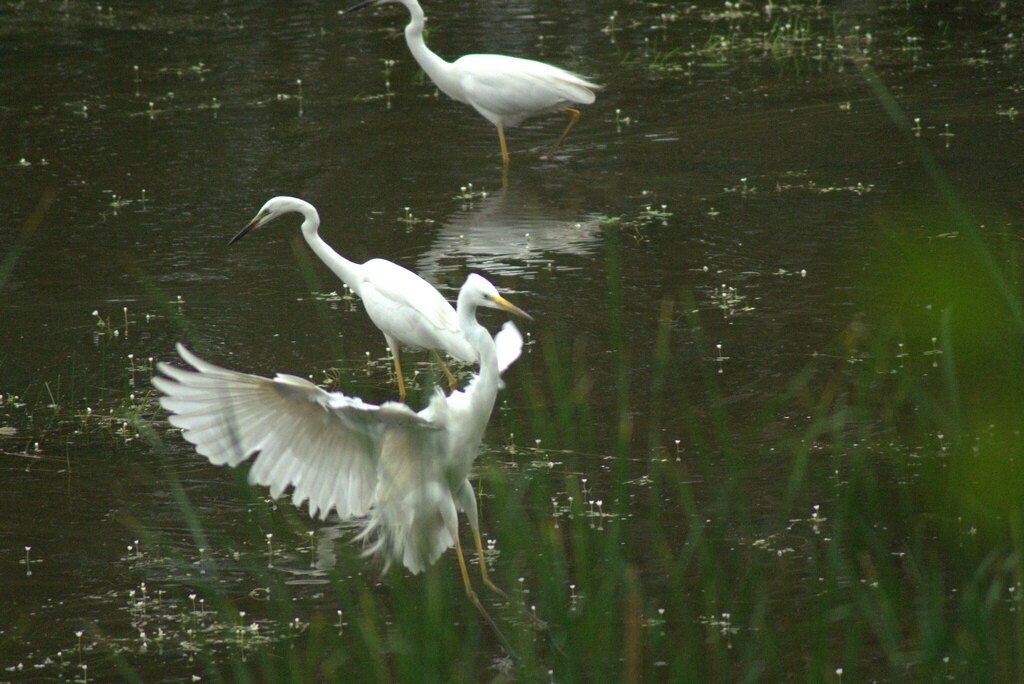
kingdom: Animalia
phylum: Chordata
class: Aves
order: Pelecaniformes
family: Ardeidae
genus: Ardea
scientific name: Ardea alba
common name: Great egret
